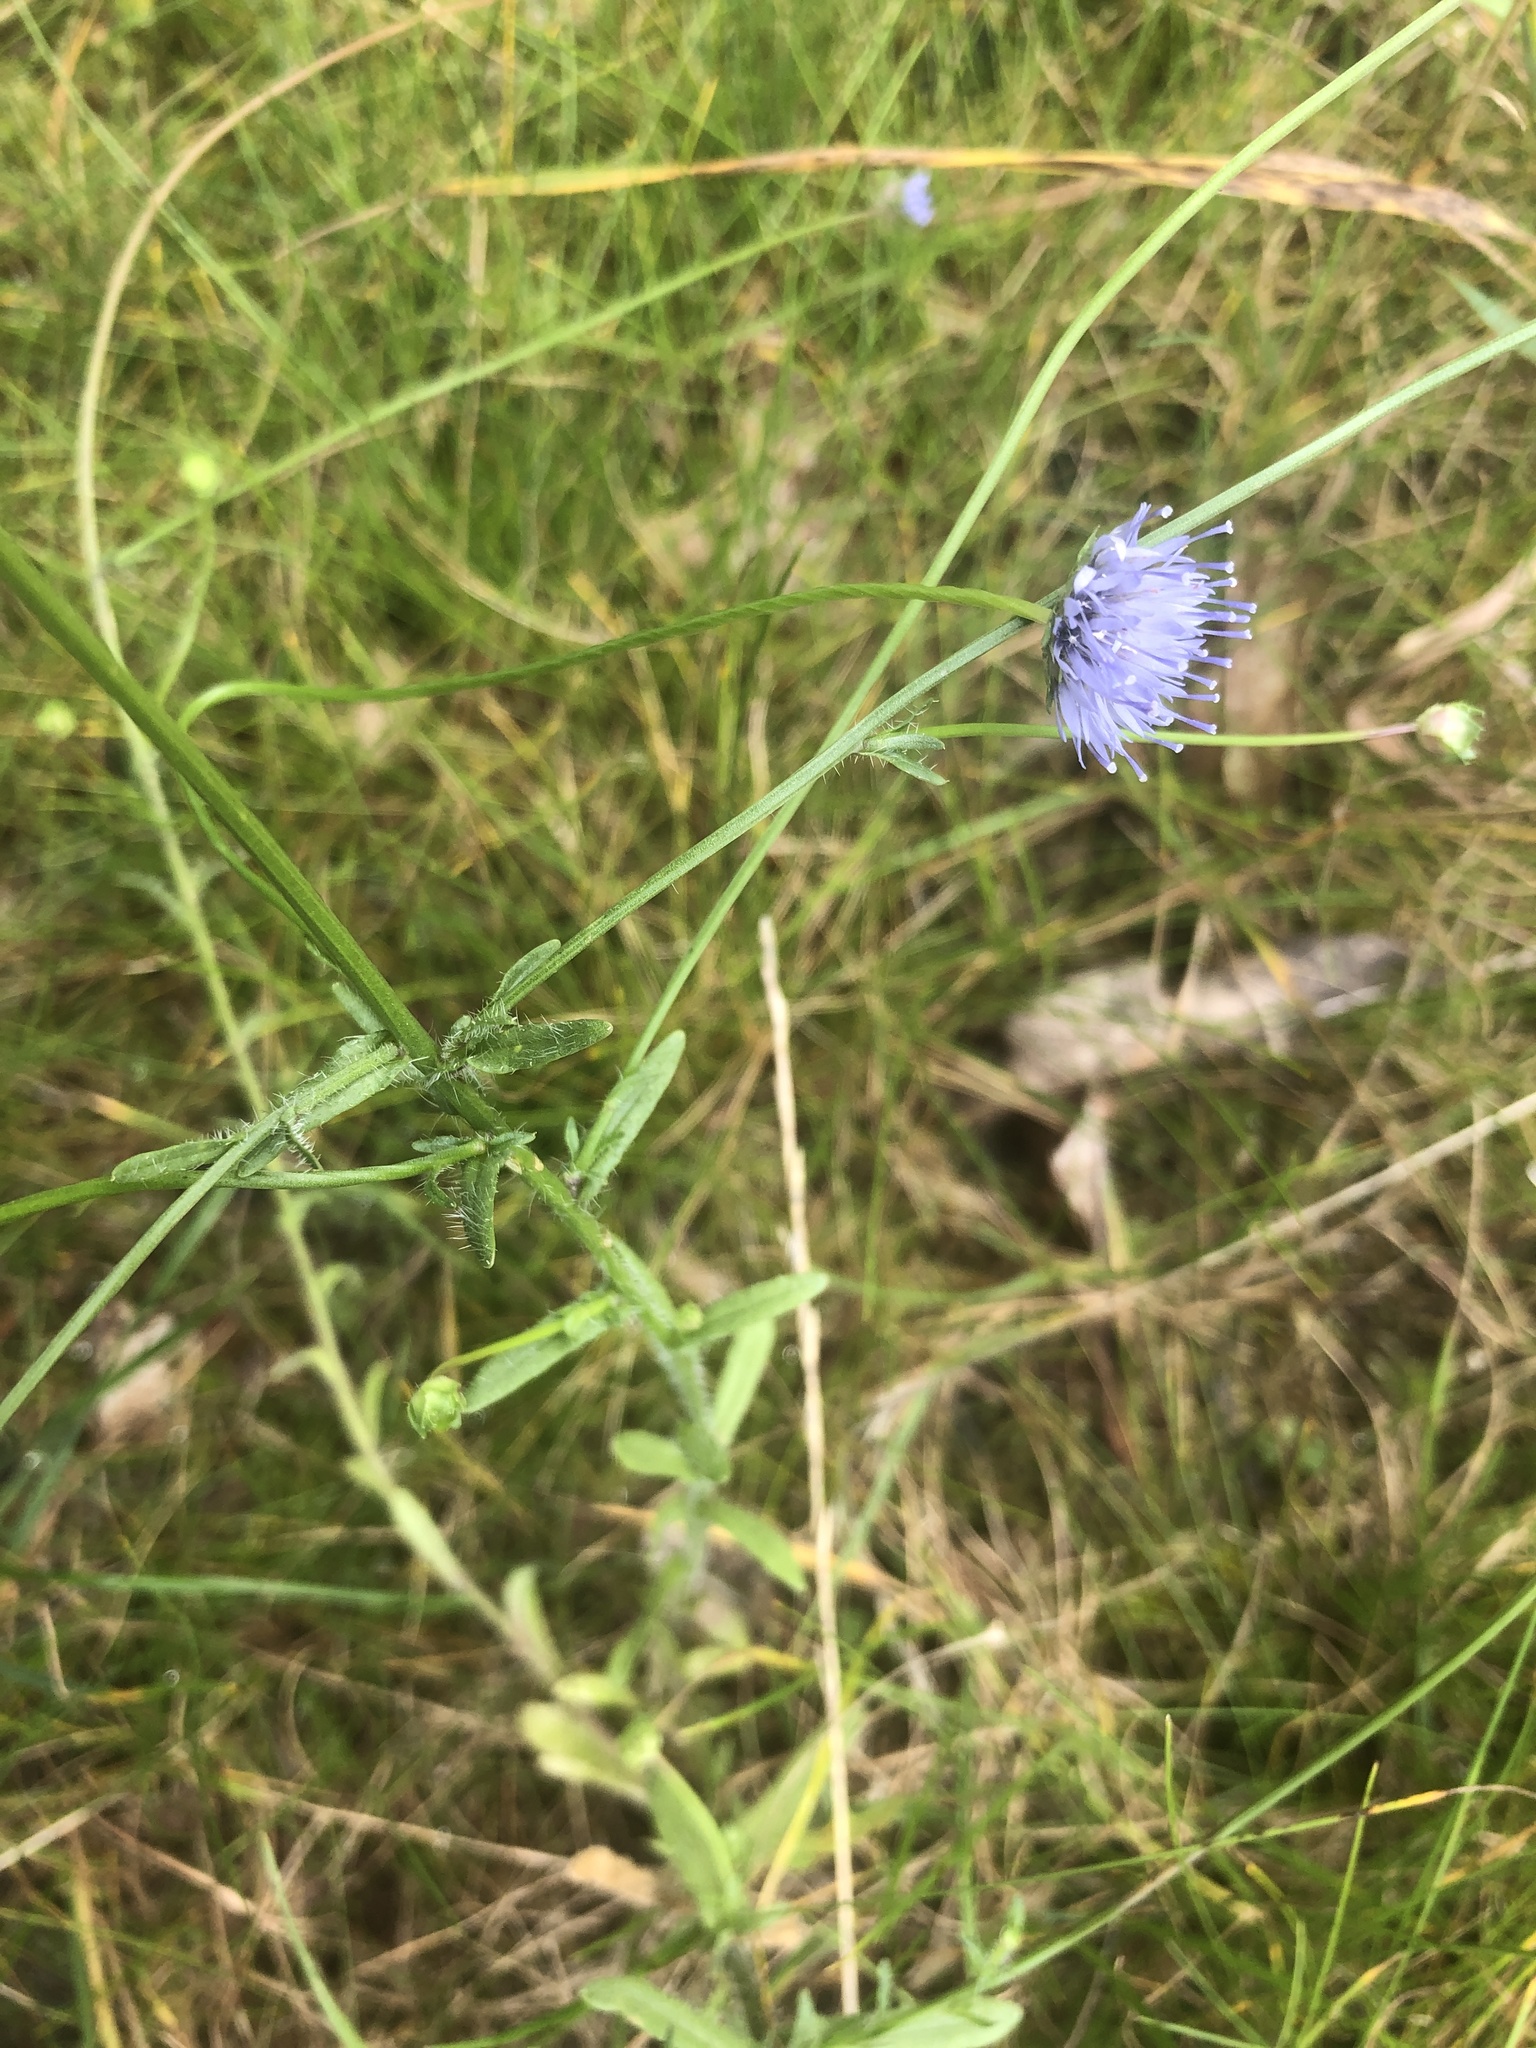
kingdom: Plantae
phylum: Tracheophyta
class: Magnoliopsida
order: Asterales
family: Campanulaceae
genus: Jasione
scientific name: Jasione montana
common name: Sheep's-bit
